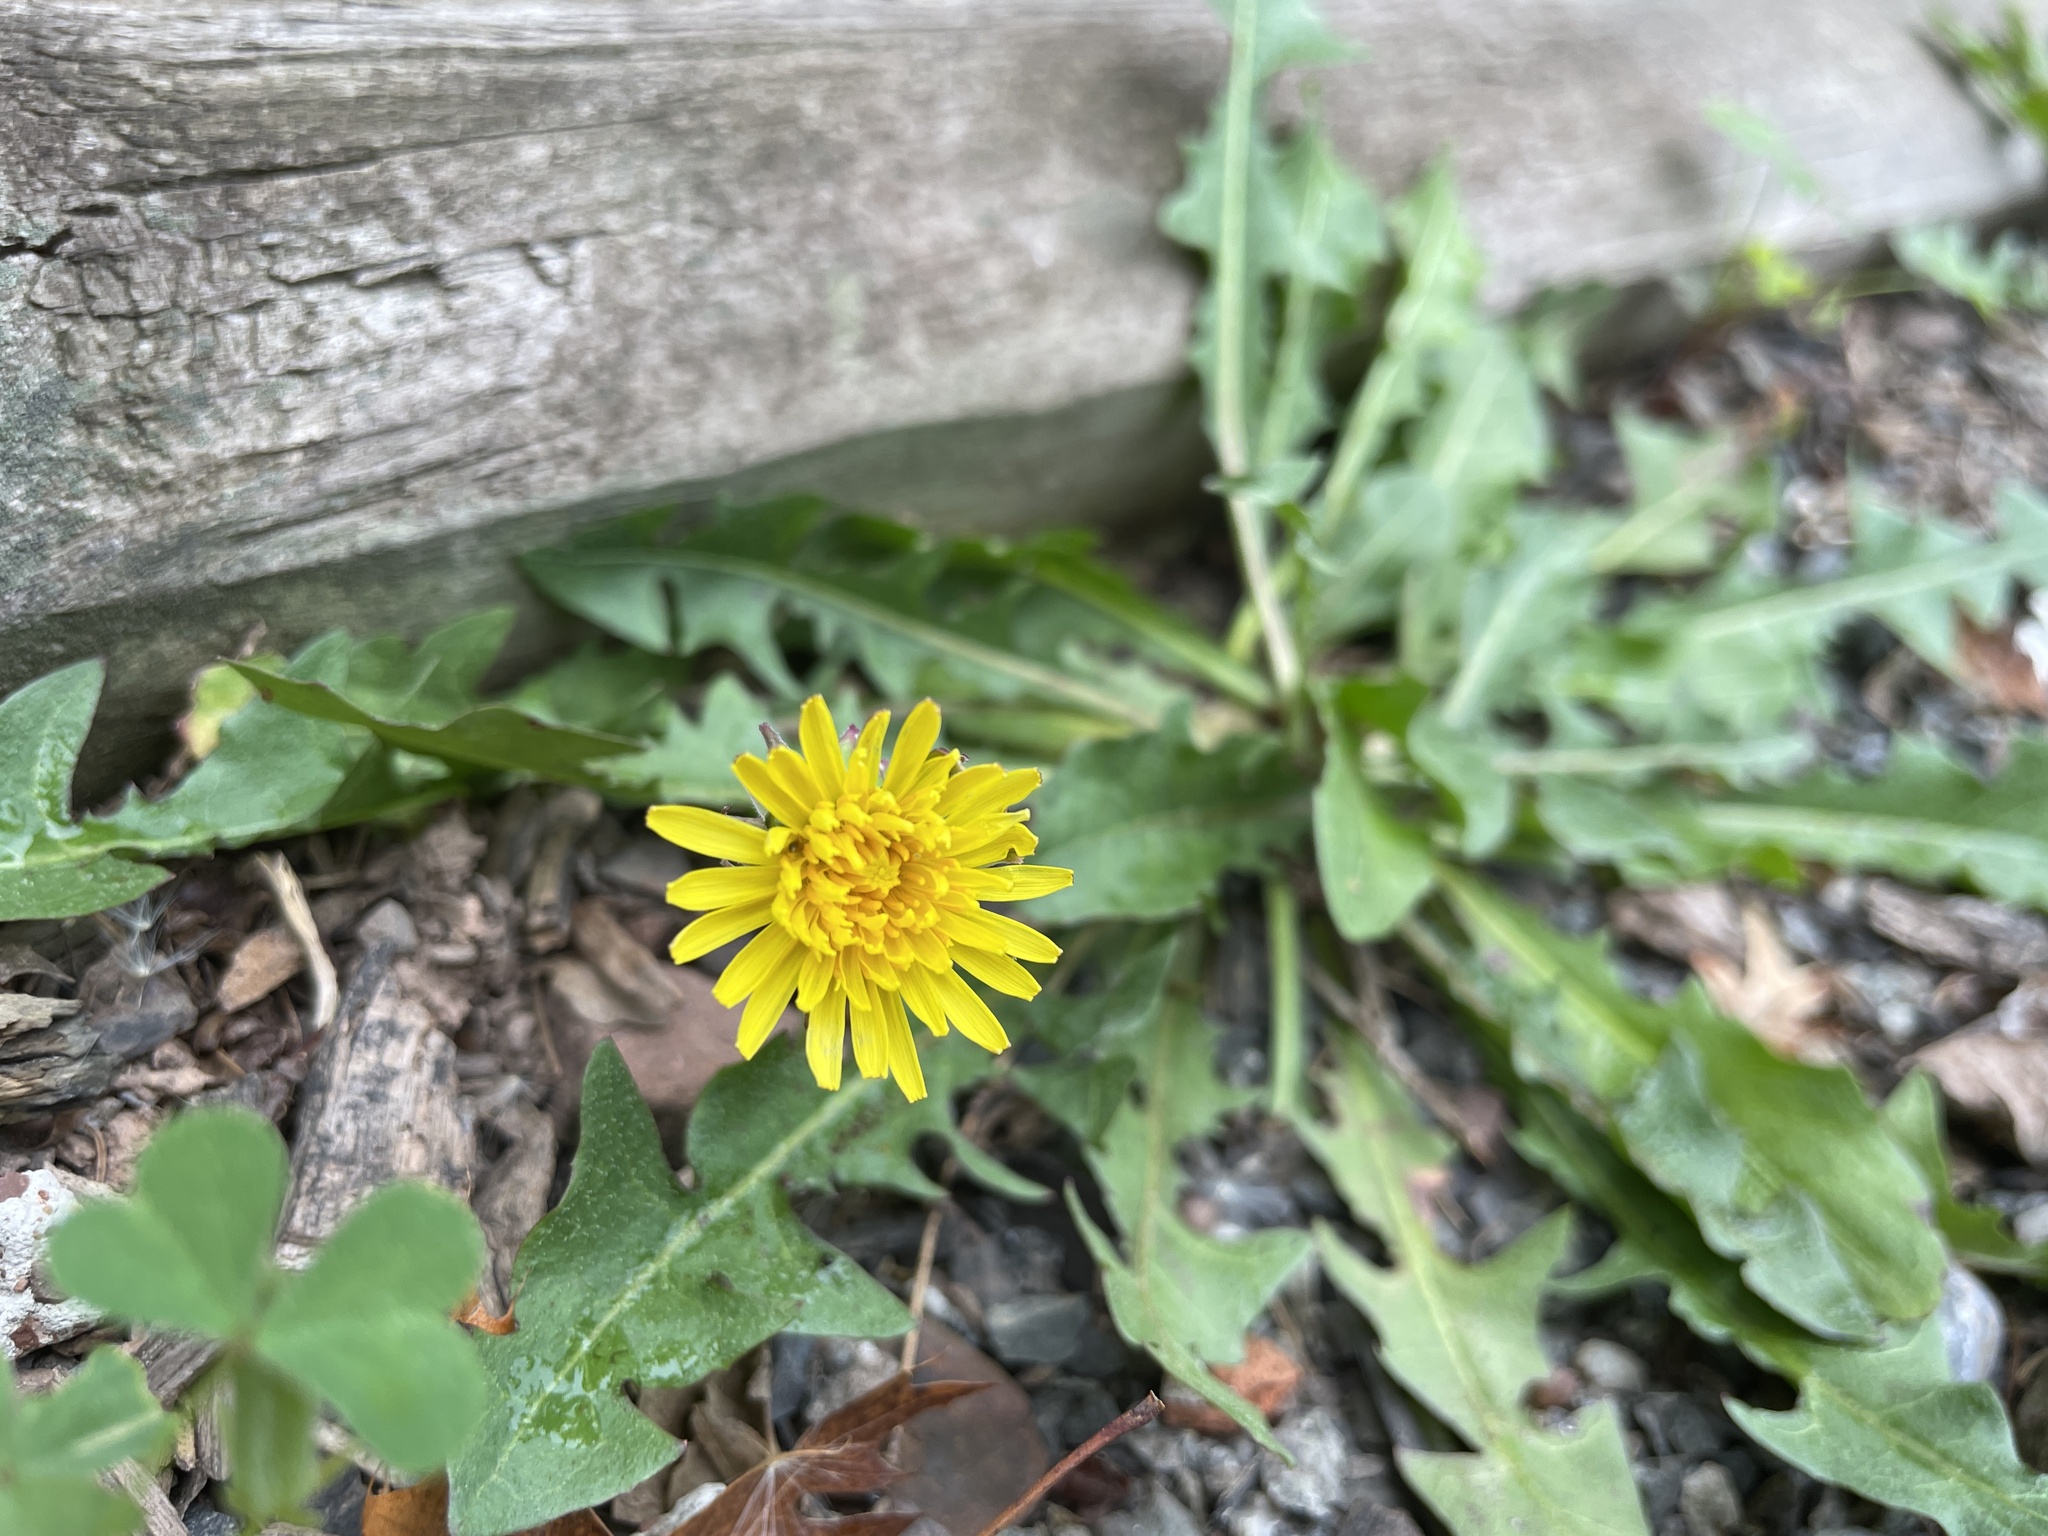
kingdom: Plantae
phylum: Tracheophyta
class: Magnoliopsida
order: Asterales
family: Asteraceae
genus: Taraxacum
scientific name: Taraxacum
